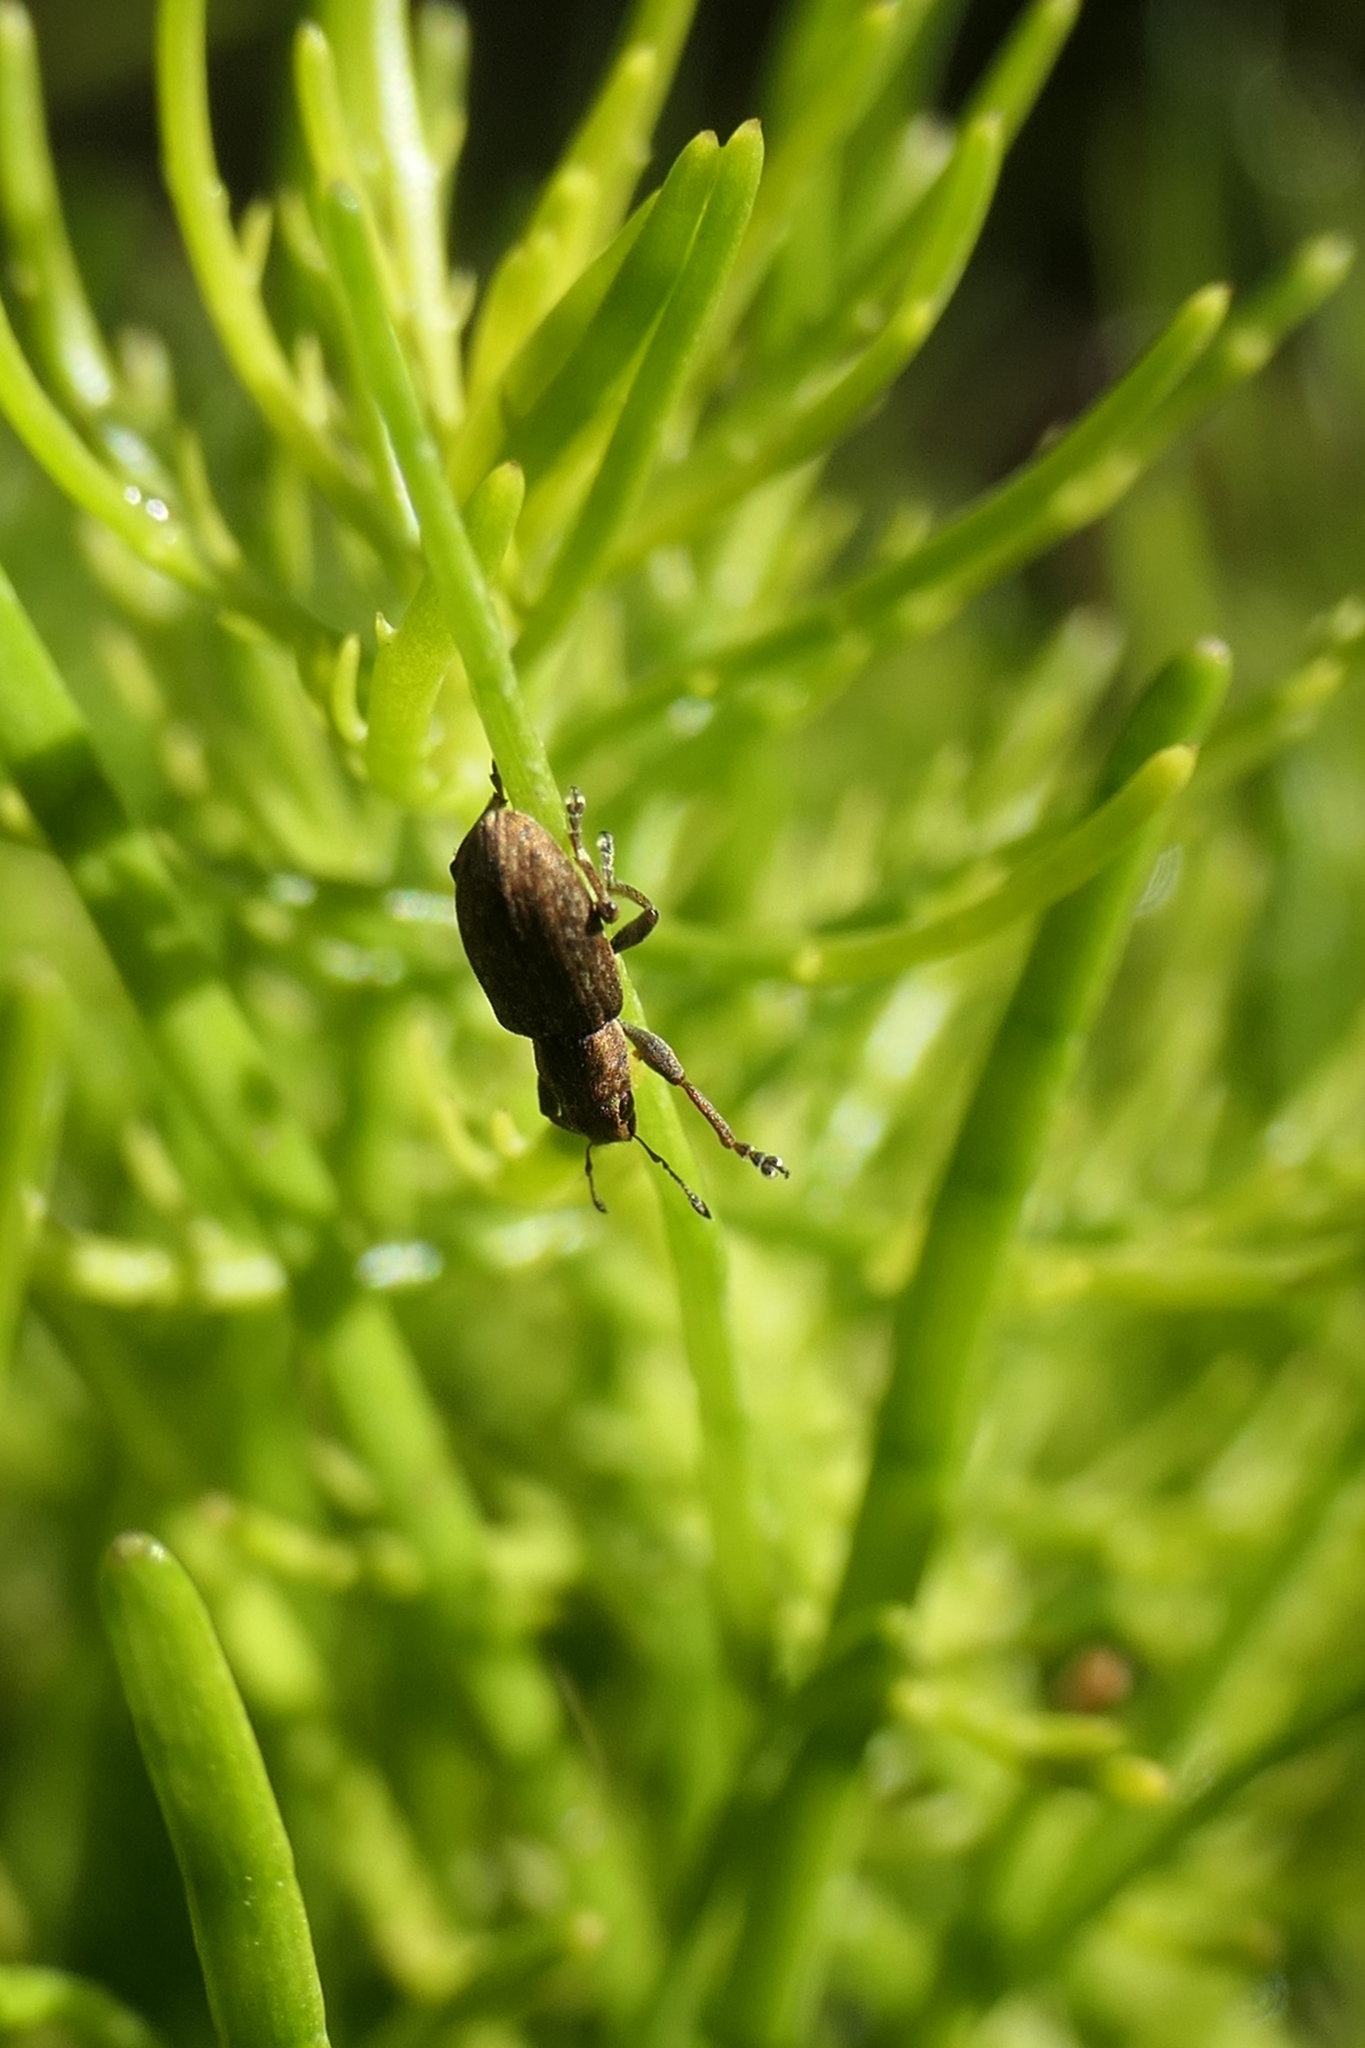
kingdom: Animalia
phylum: Arthropoda
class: Insecta
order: Coleoptera
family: Curculionidae
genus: Sitona
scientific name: Sitona obsoletus
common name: Weevil
